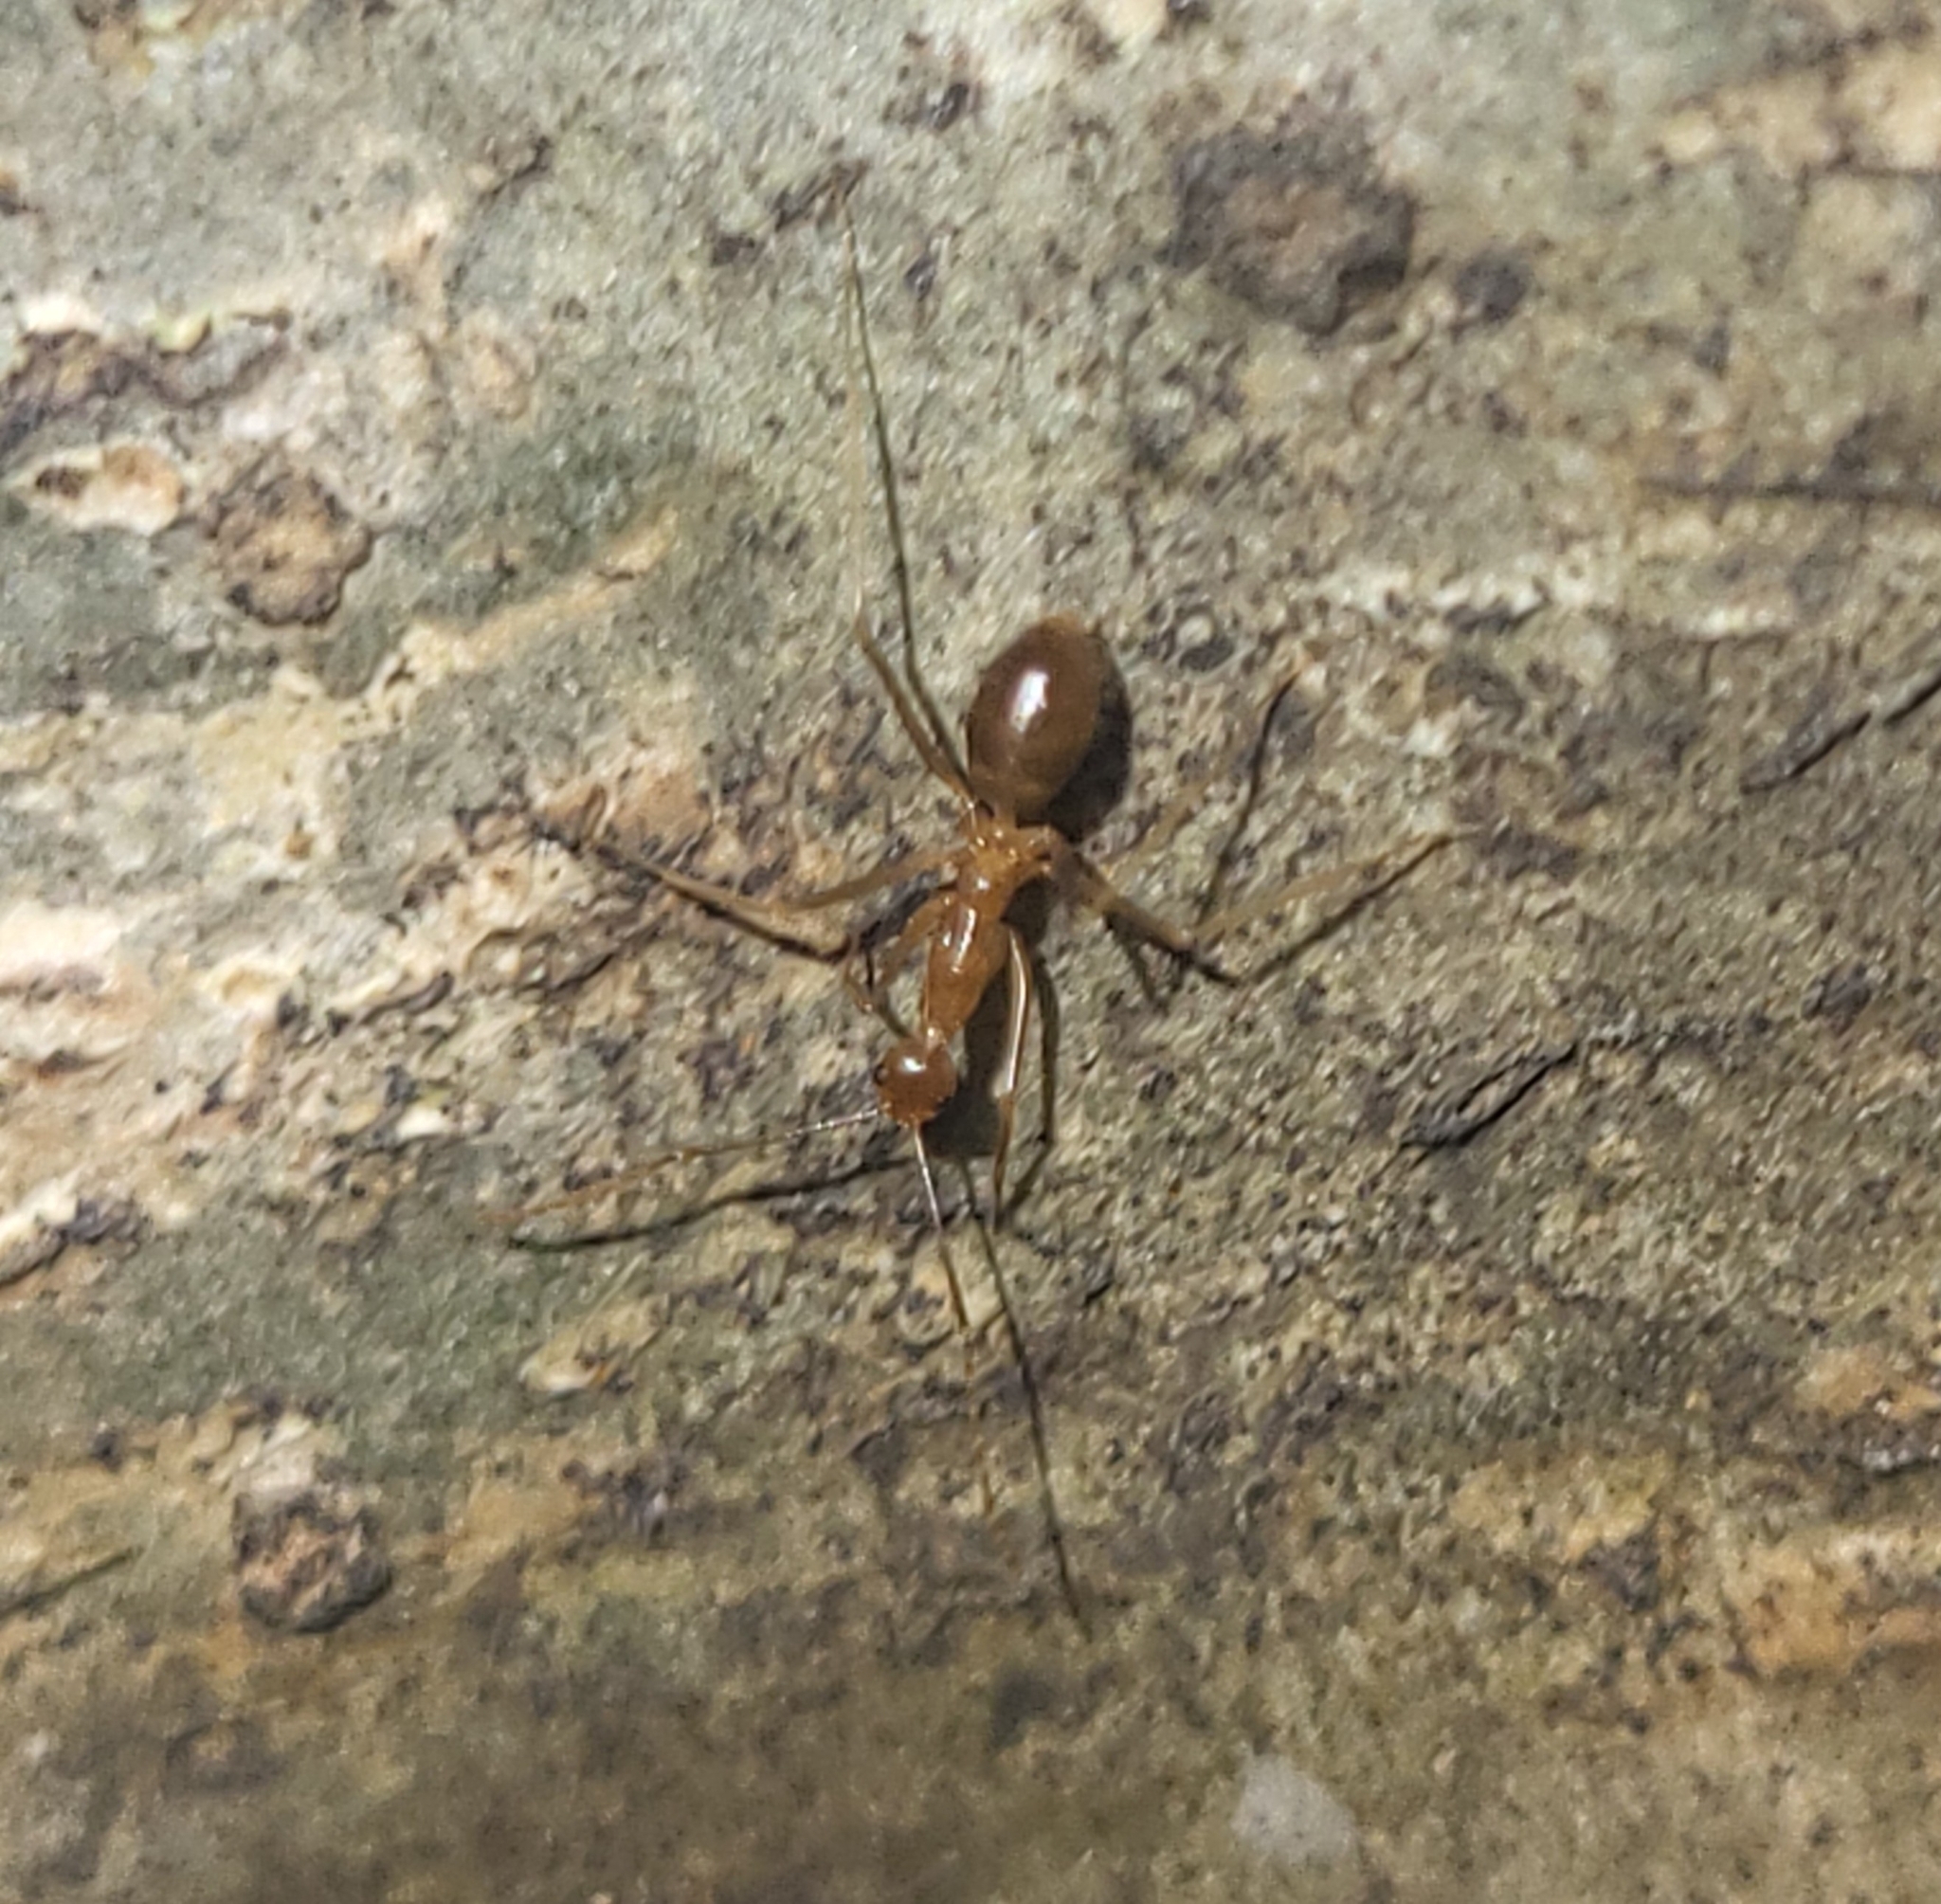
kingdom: Animalia
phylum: Arthropoda
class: Insecta
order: Hymenoptera
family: Formicidae
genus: Anoplolepis
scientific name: Anoplolepis gracilipes
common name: Ant
